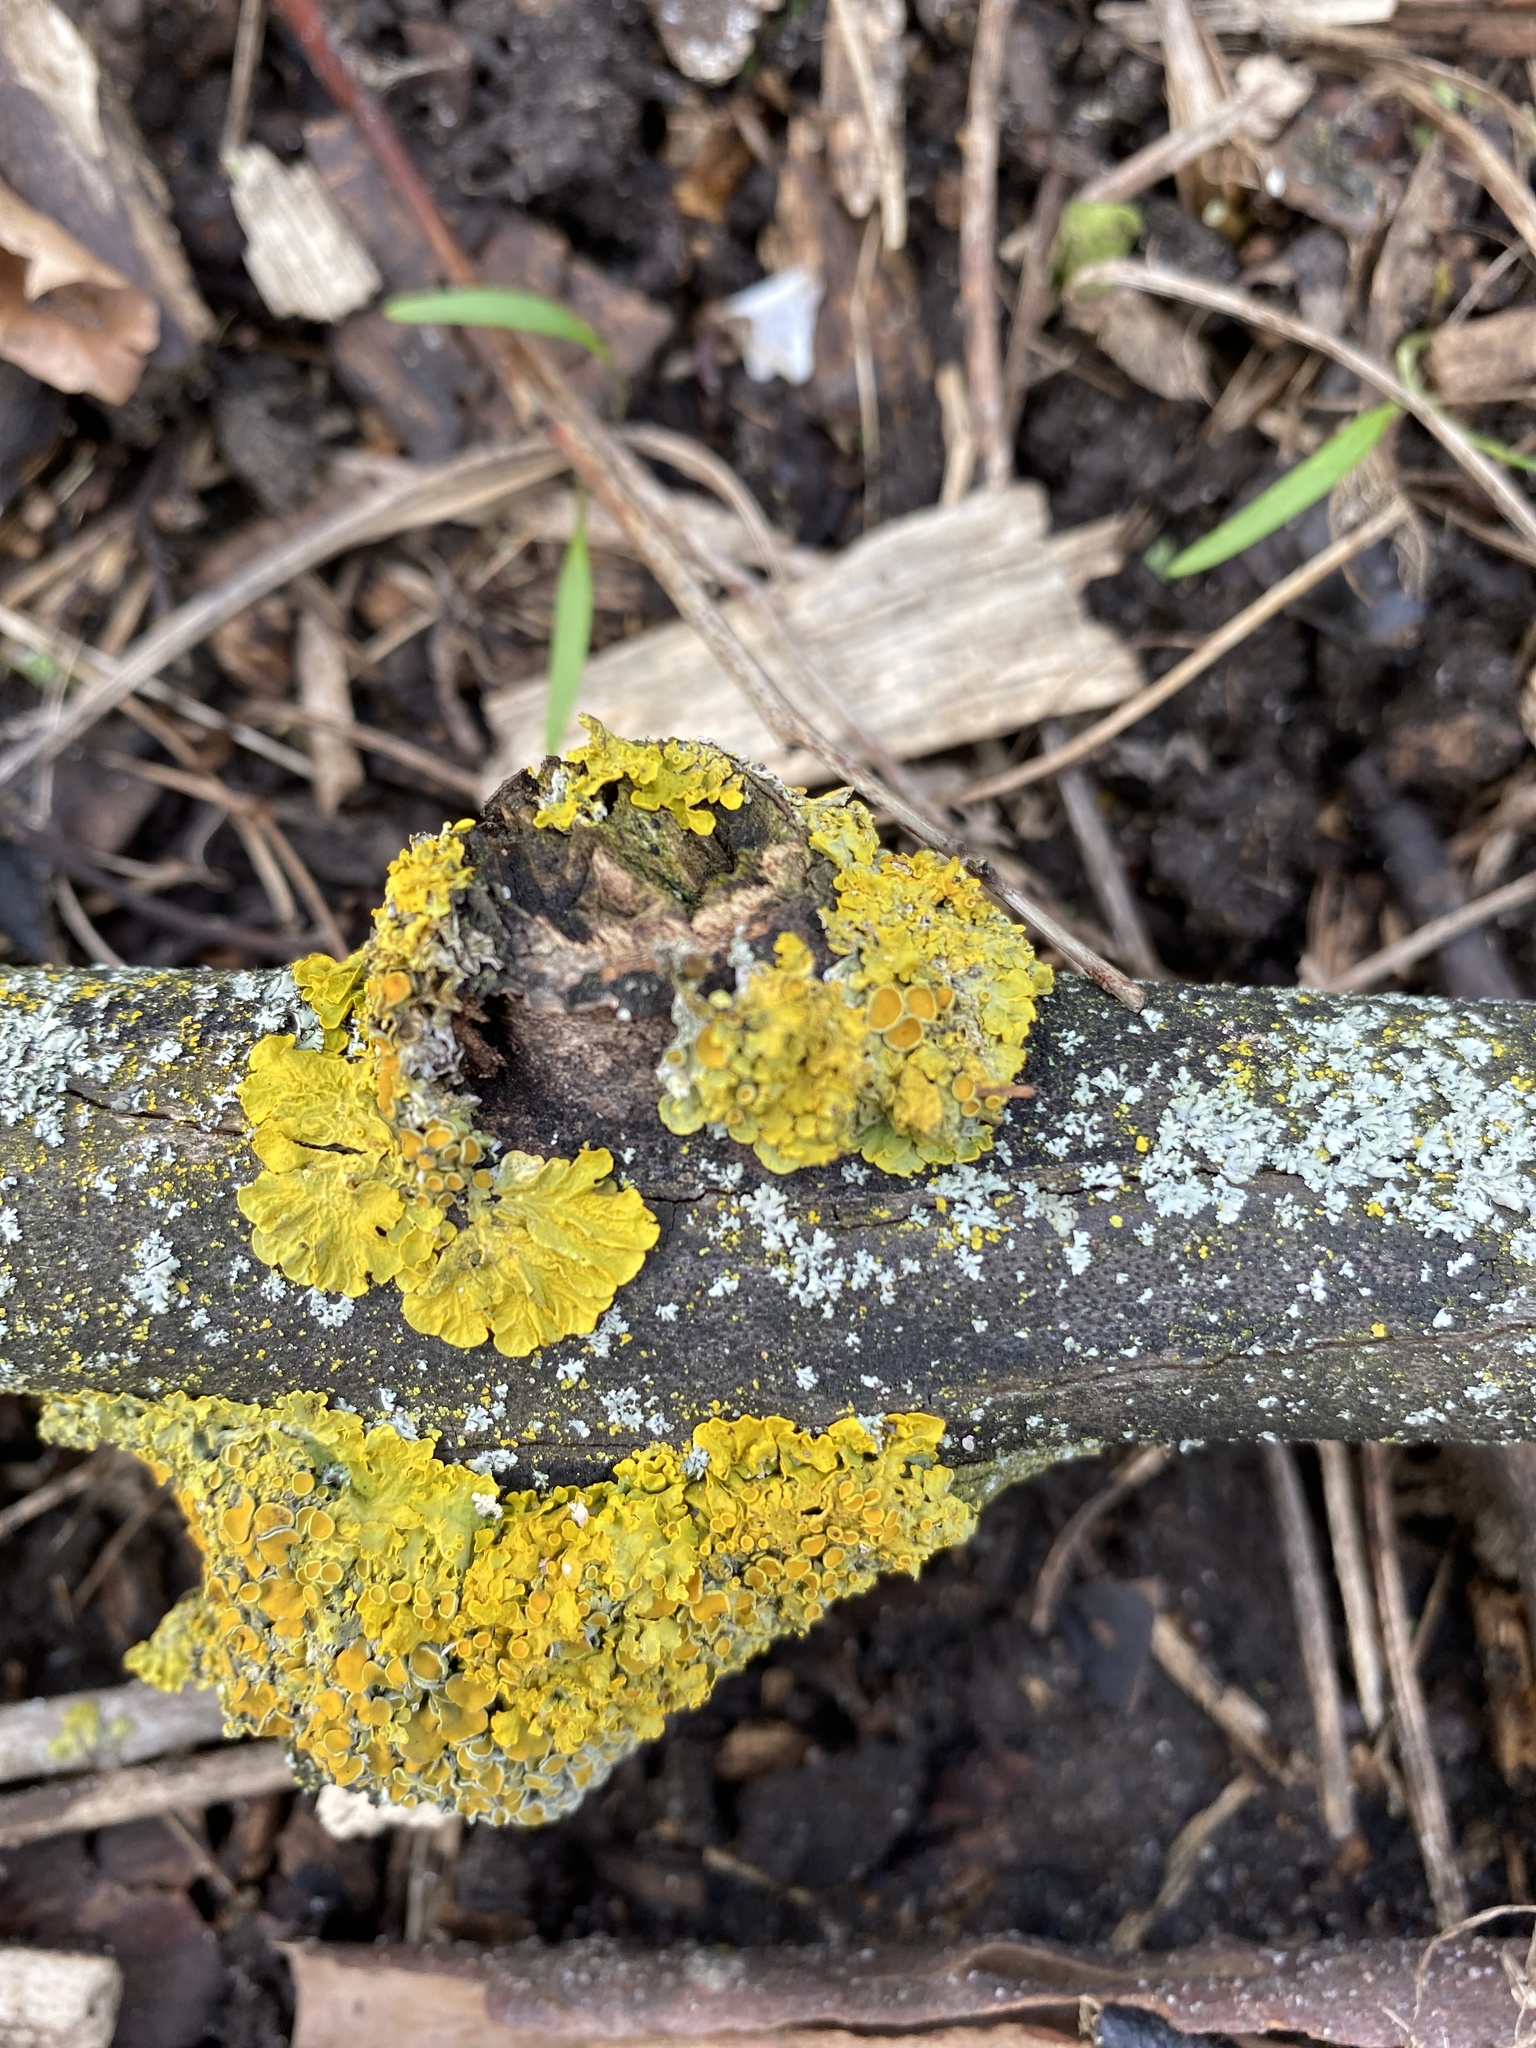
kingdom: Fungi
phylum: Ascomycota
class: Lecanoromycetes
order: Teloschistales
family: Teloschistaceae
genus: Xanthoria
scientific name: Xanthoria parietina
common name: Common orange lichen
